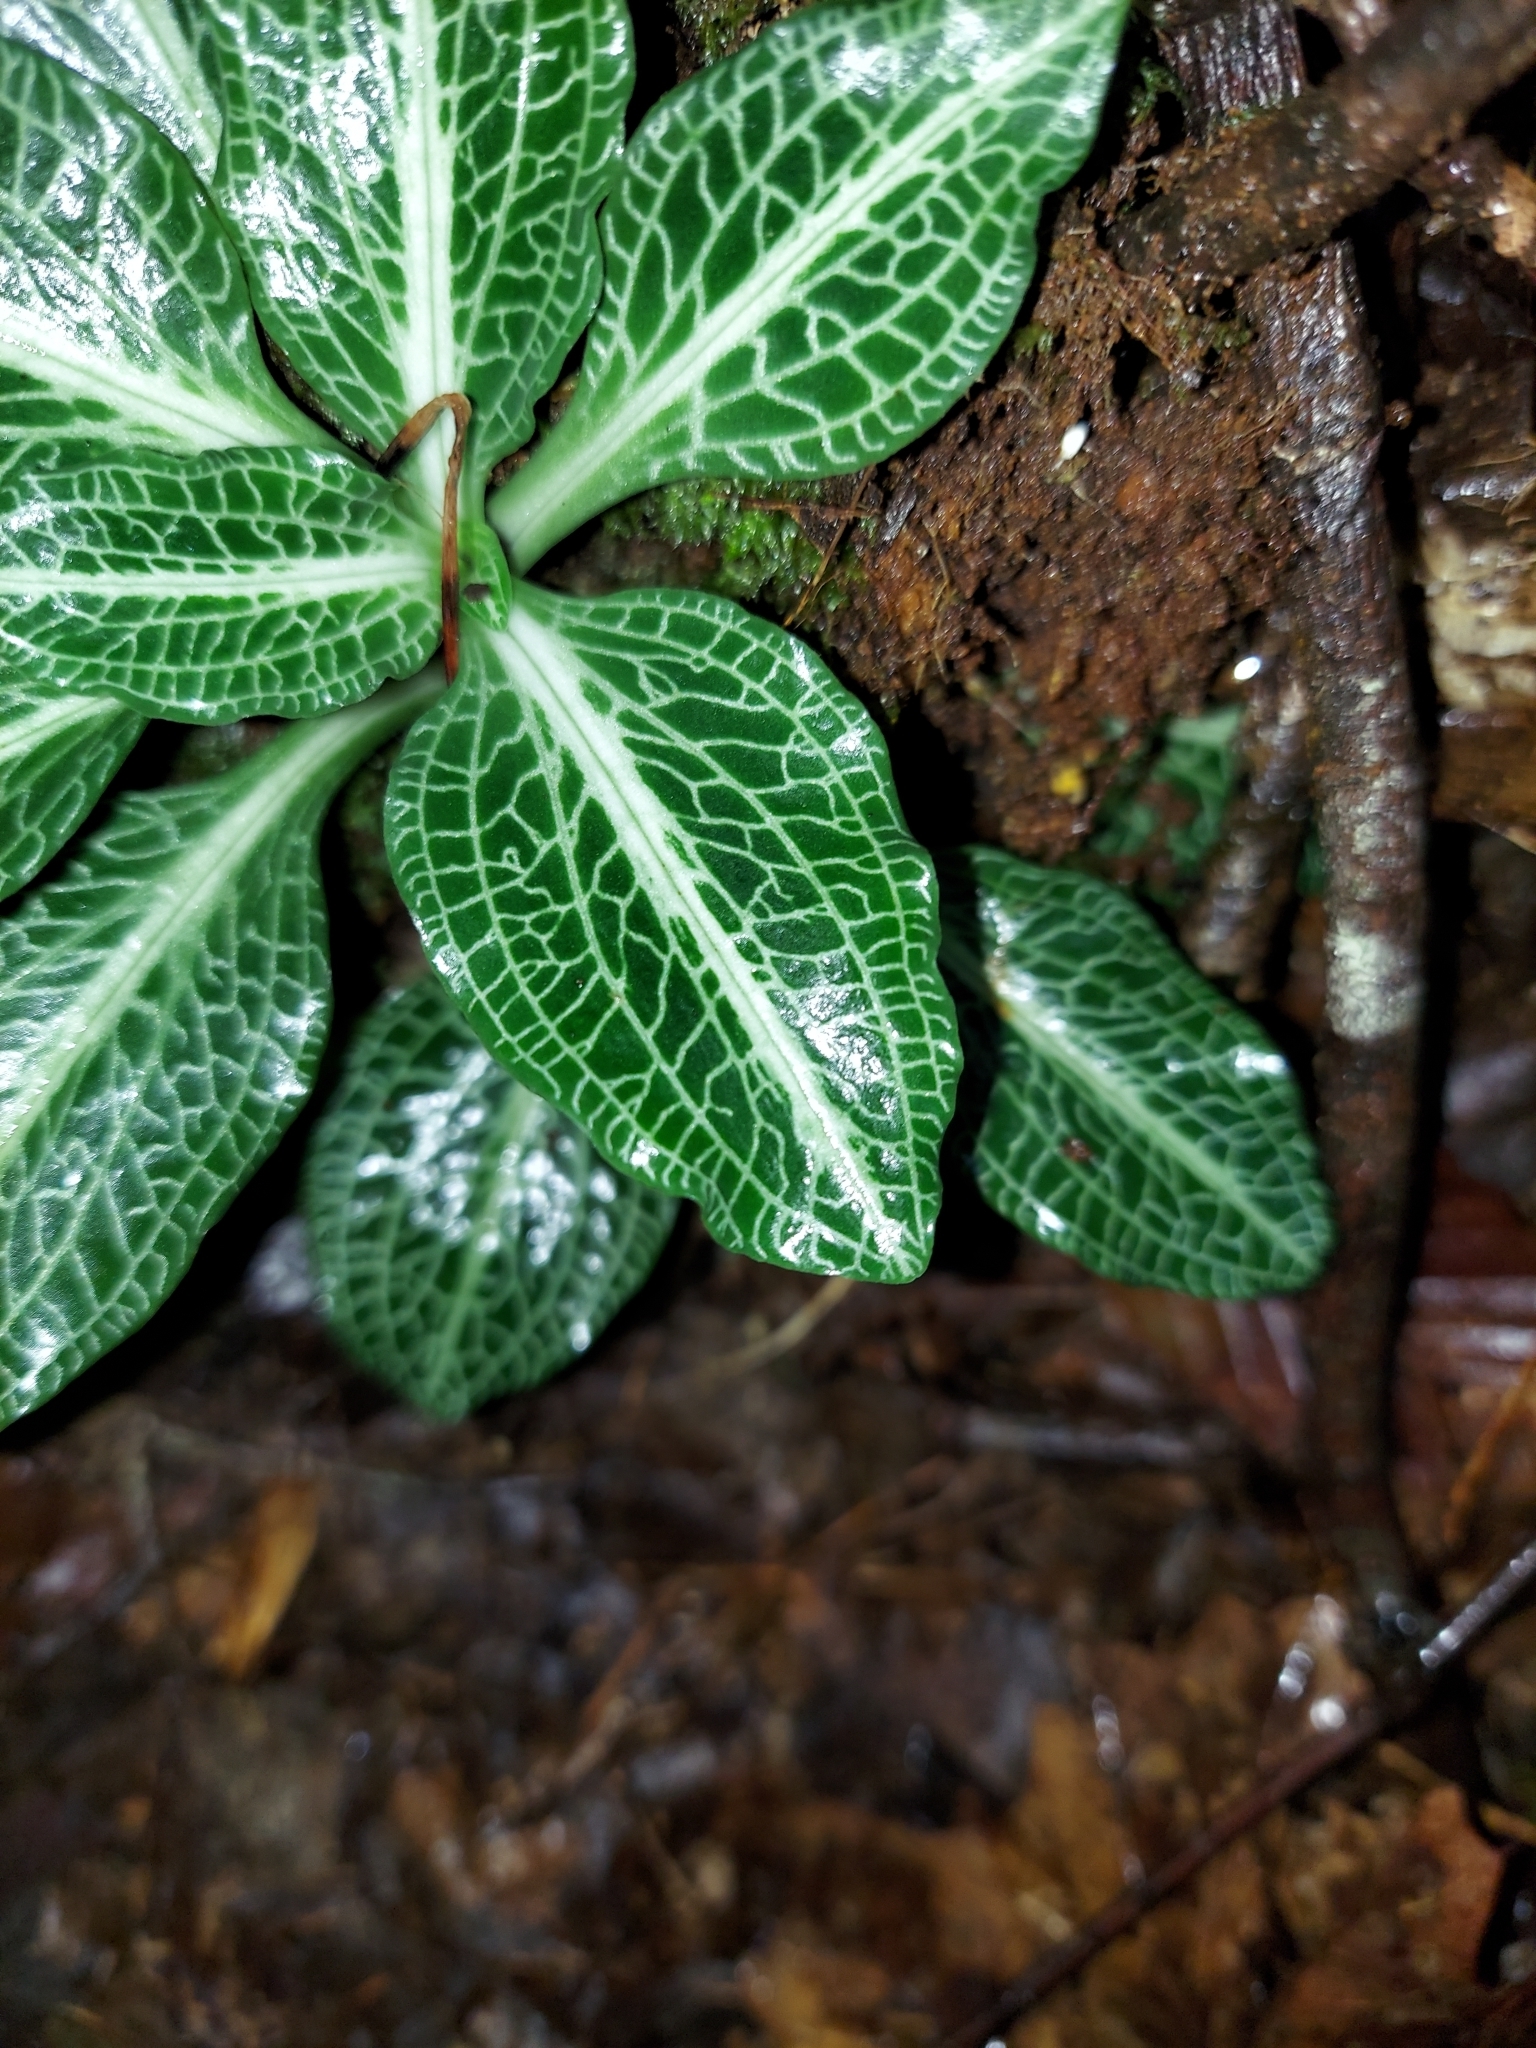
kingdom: Plantae
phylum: Tracheophyta
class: Liliopsida
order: Asparagales
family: Orchidaceae
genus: Goodyera
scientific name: Goodyera pubescens
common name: Downy rattlesnake-plantain
